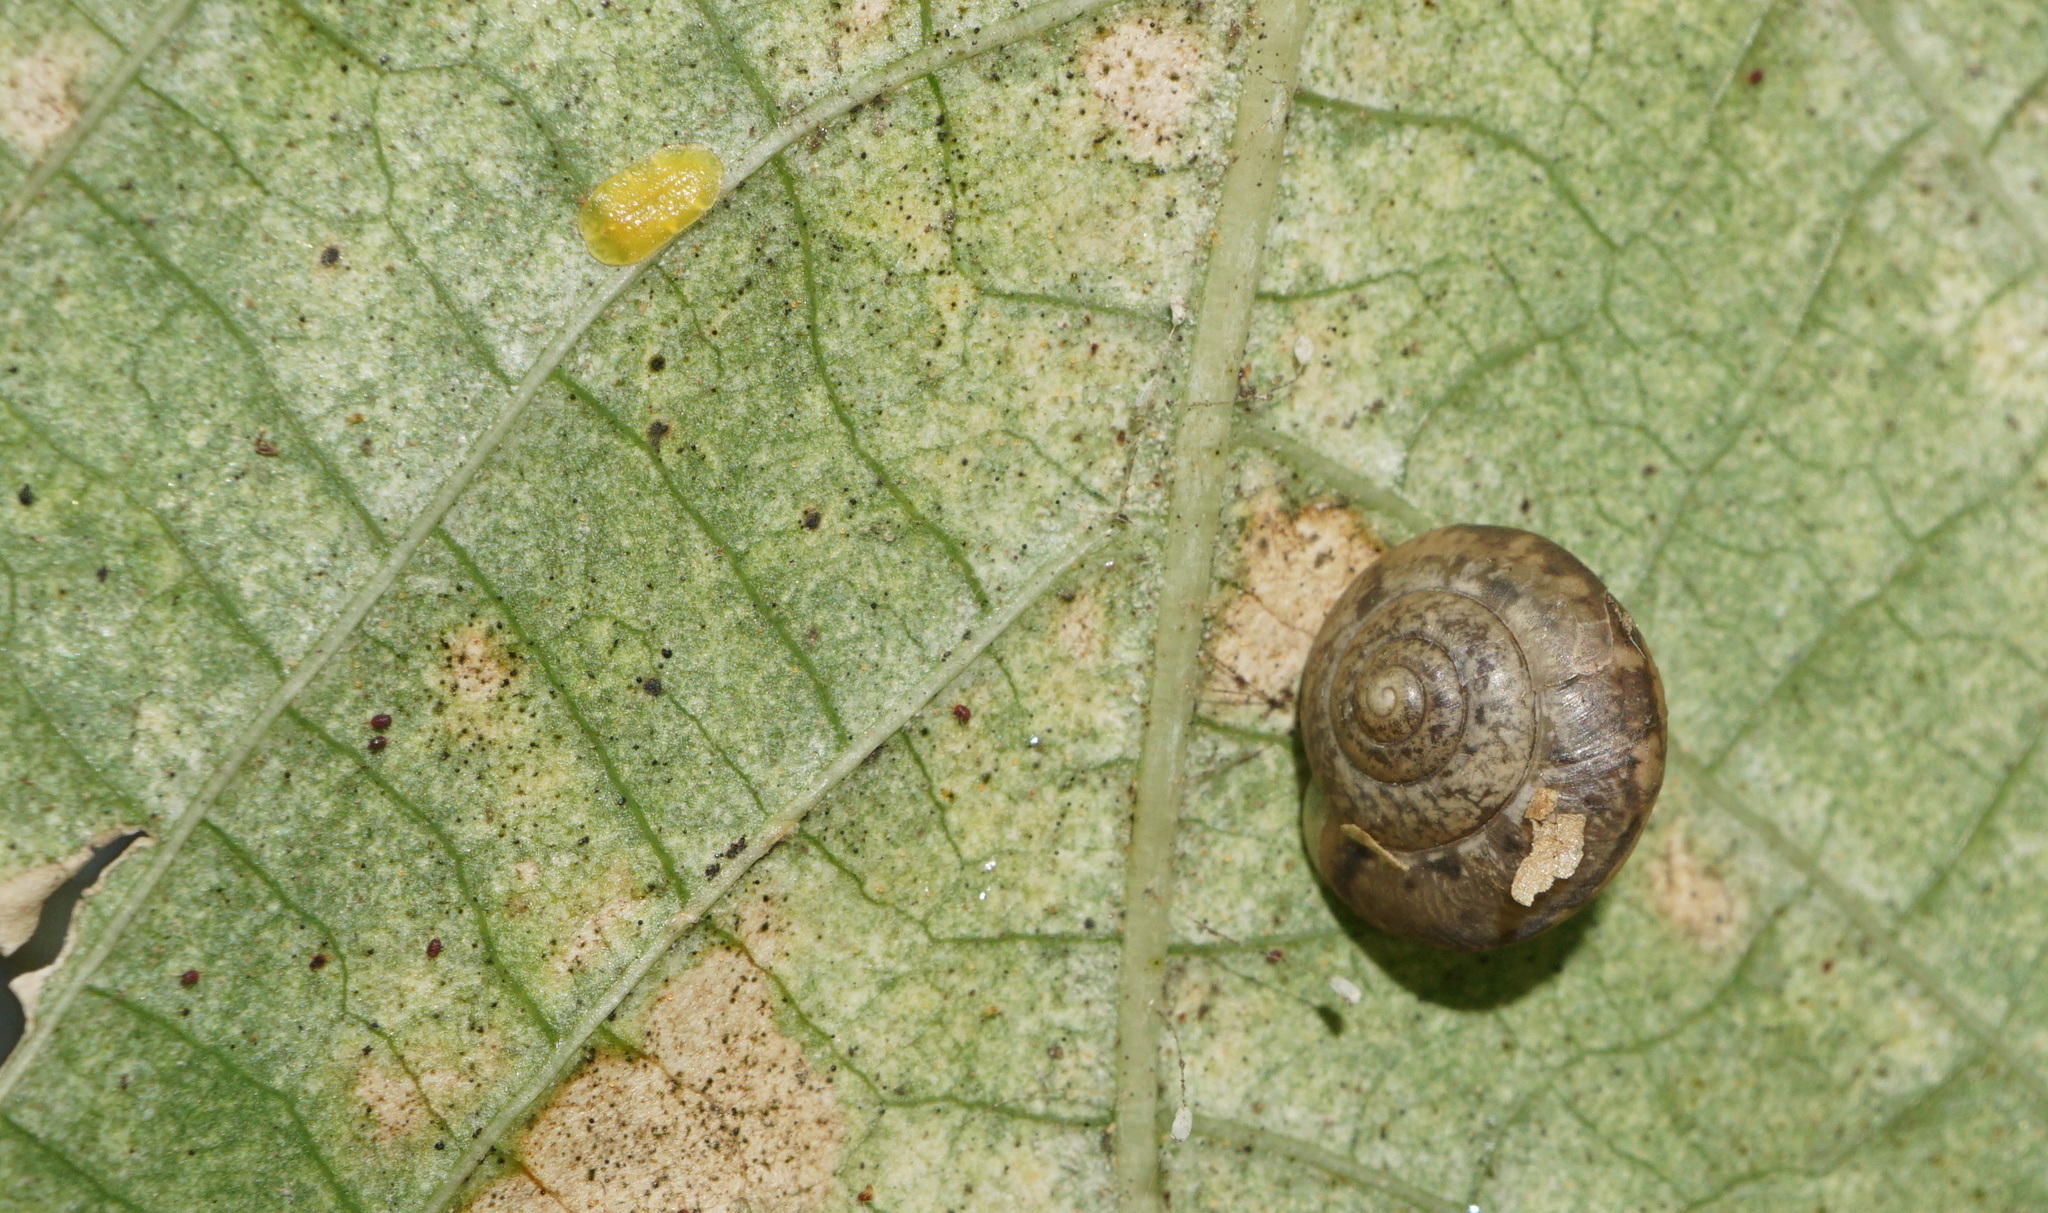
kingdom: Animalia
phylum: Mollusca
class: Gastropoda
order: Stylommatophora
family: Camaenidae
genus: Bradybaena
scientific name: Bradybaena similaris
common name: Asian trampsnail
